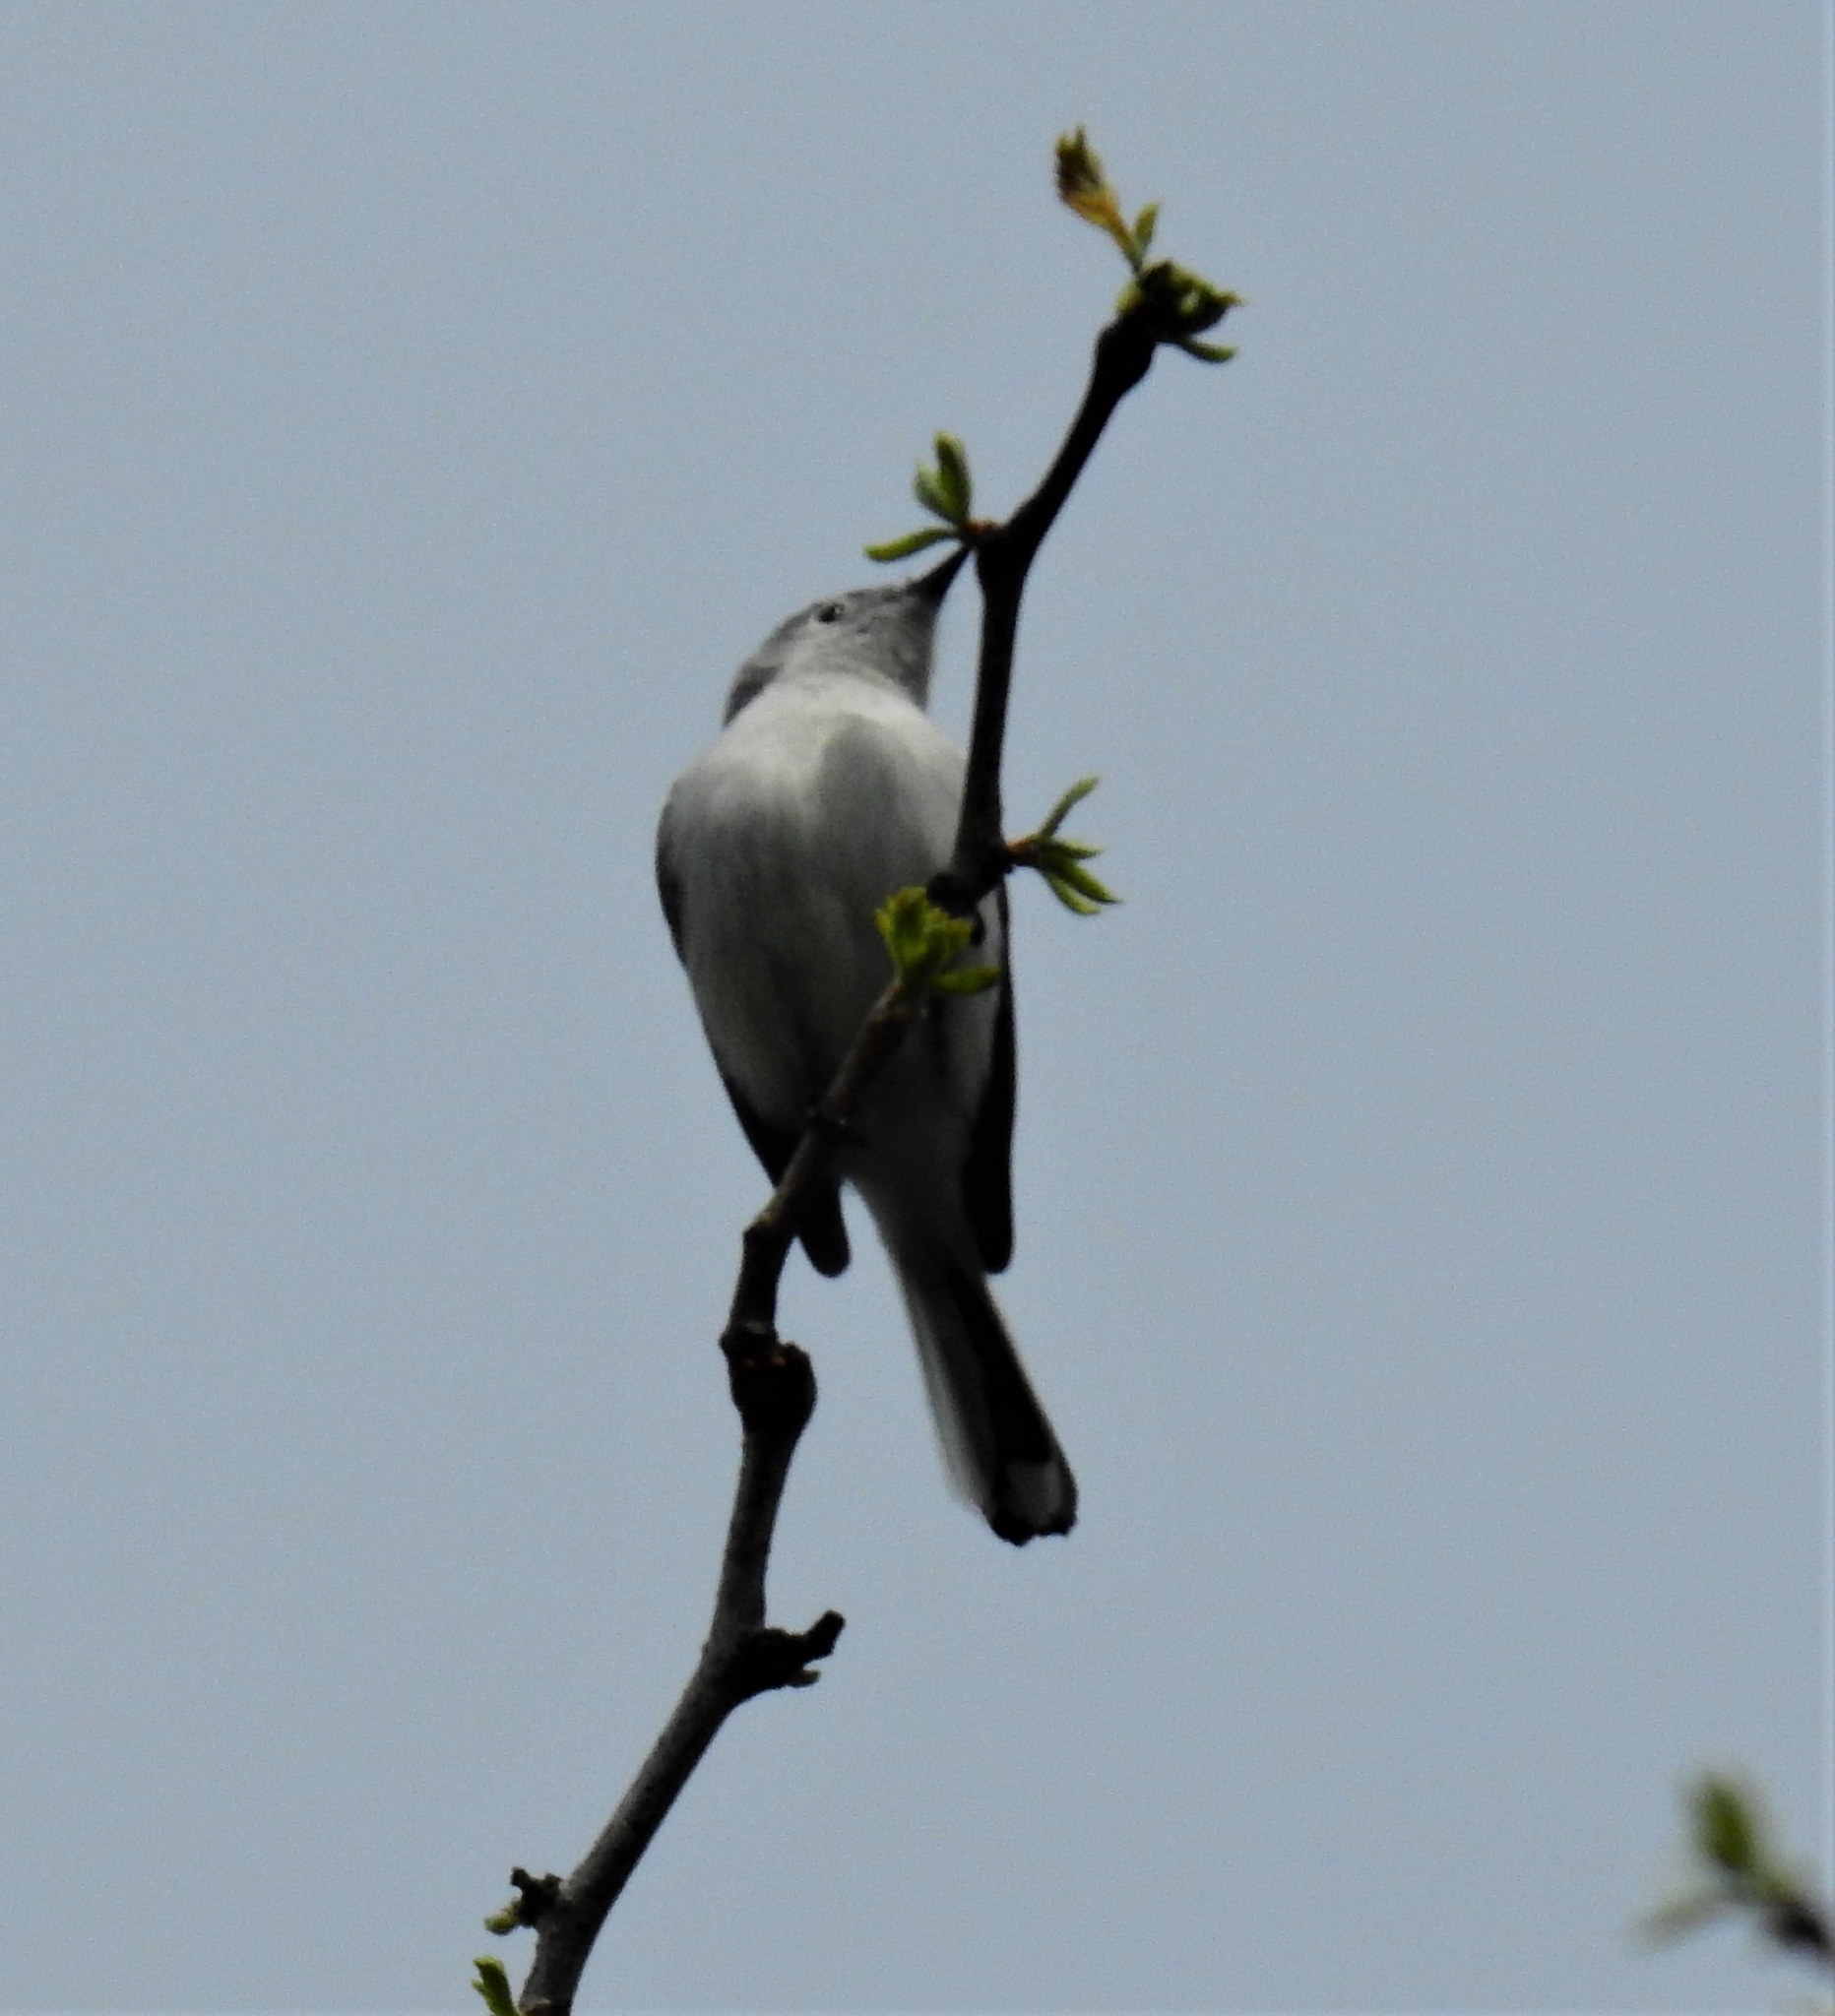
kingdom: Animalia
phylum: Chordata
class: Aves
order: Passeriformes
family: Polioptilidae
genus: Polioptila
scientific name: Polioptila caerulea
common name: Blue-gray gnatcatcher
